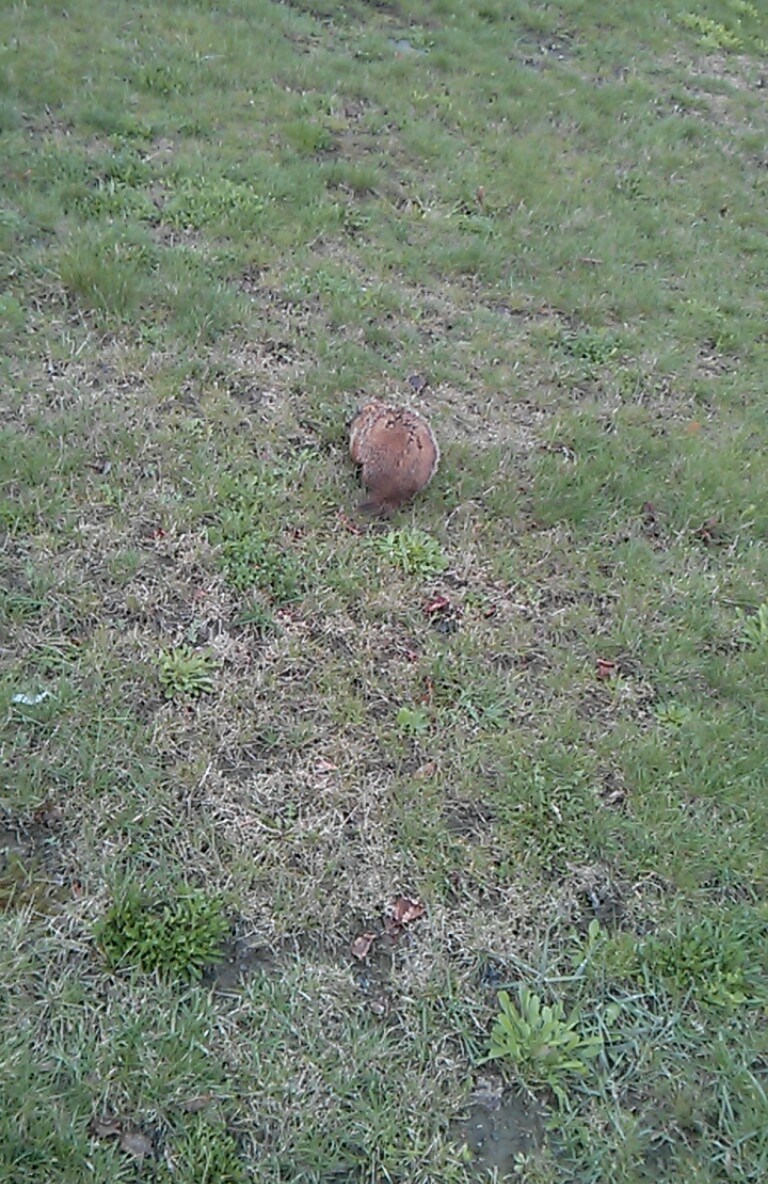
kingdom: Animalia
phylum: Chordata
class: Mammalia
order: Lagomorpha
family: Leporidae
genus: Sylvilagus
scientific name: Sylvilagus floridanus
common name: Eastern cottontail
